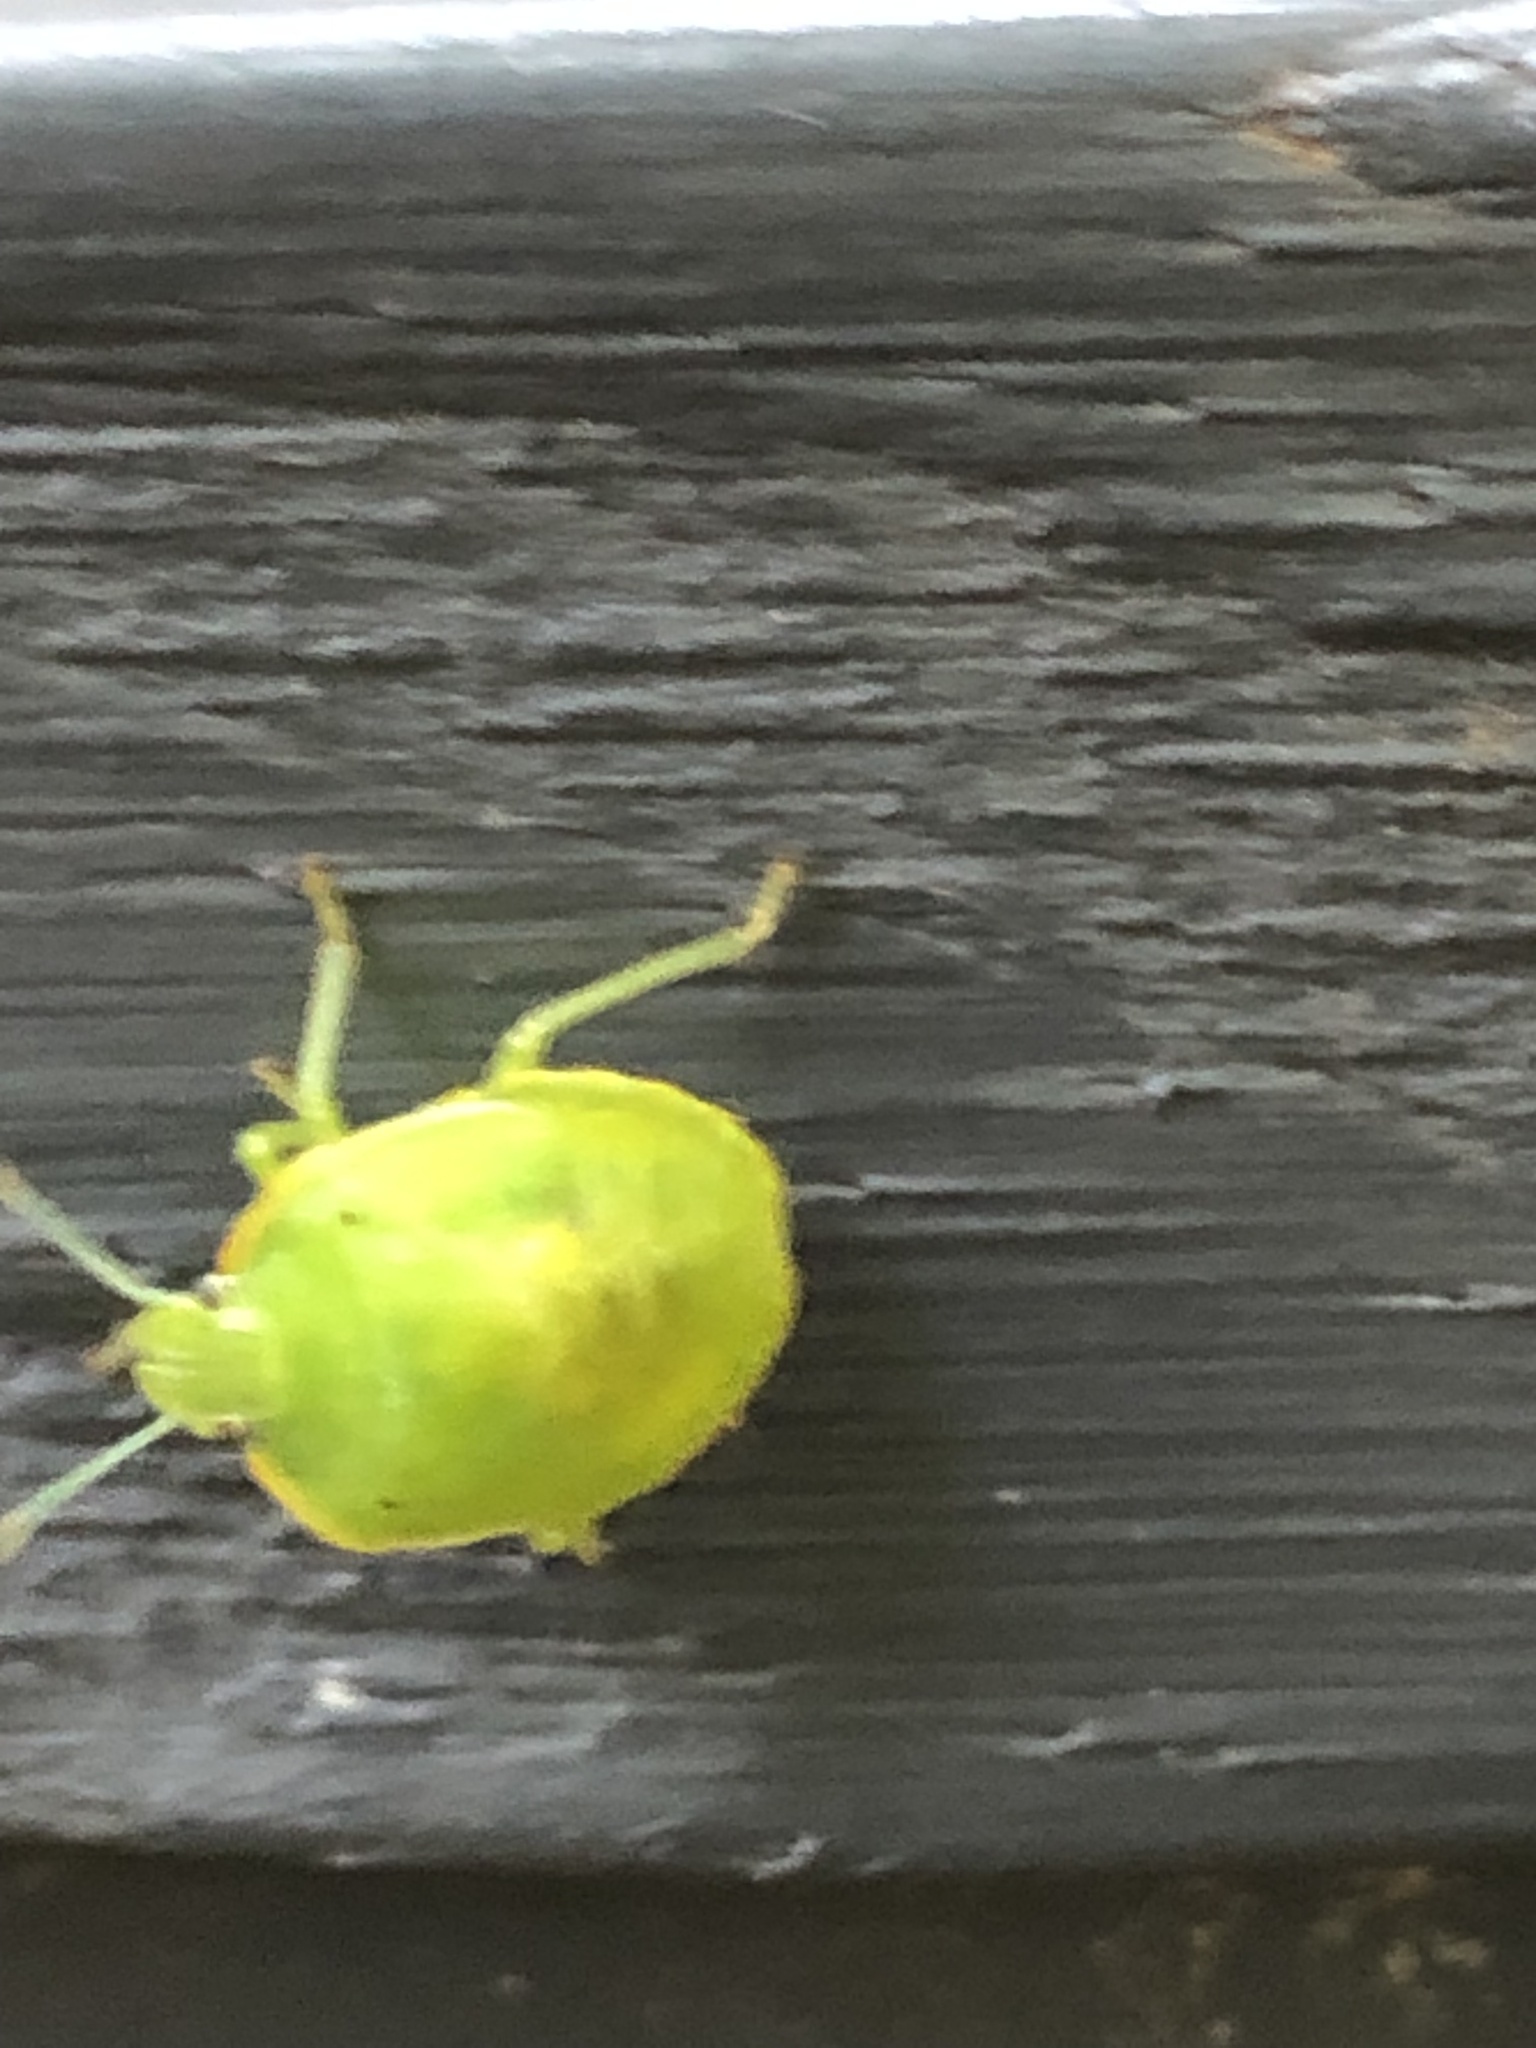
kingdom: Animalia
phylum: Arthropoda
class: Insecta
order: Hemiptera
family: Pentatomidae
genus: Chinavia
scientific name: Chinavia hilaris
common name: Green stink bug
